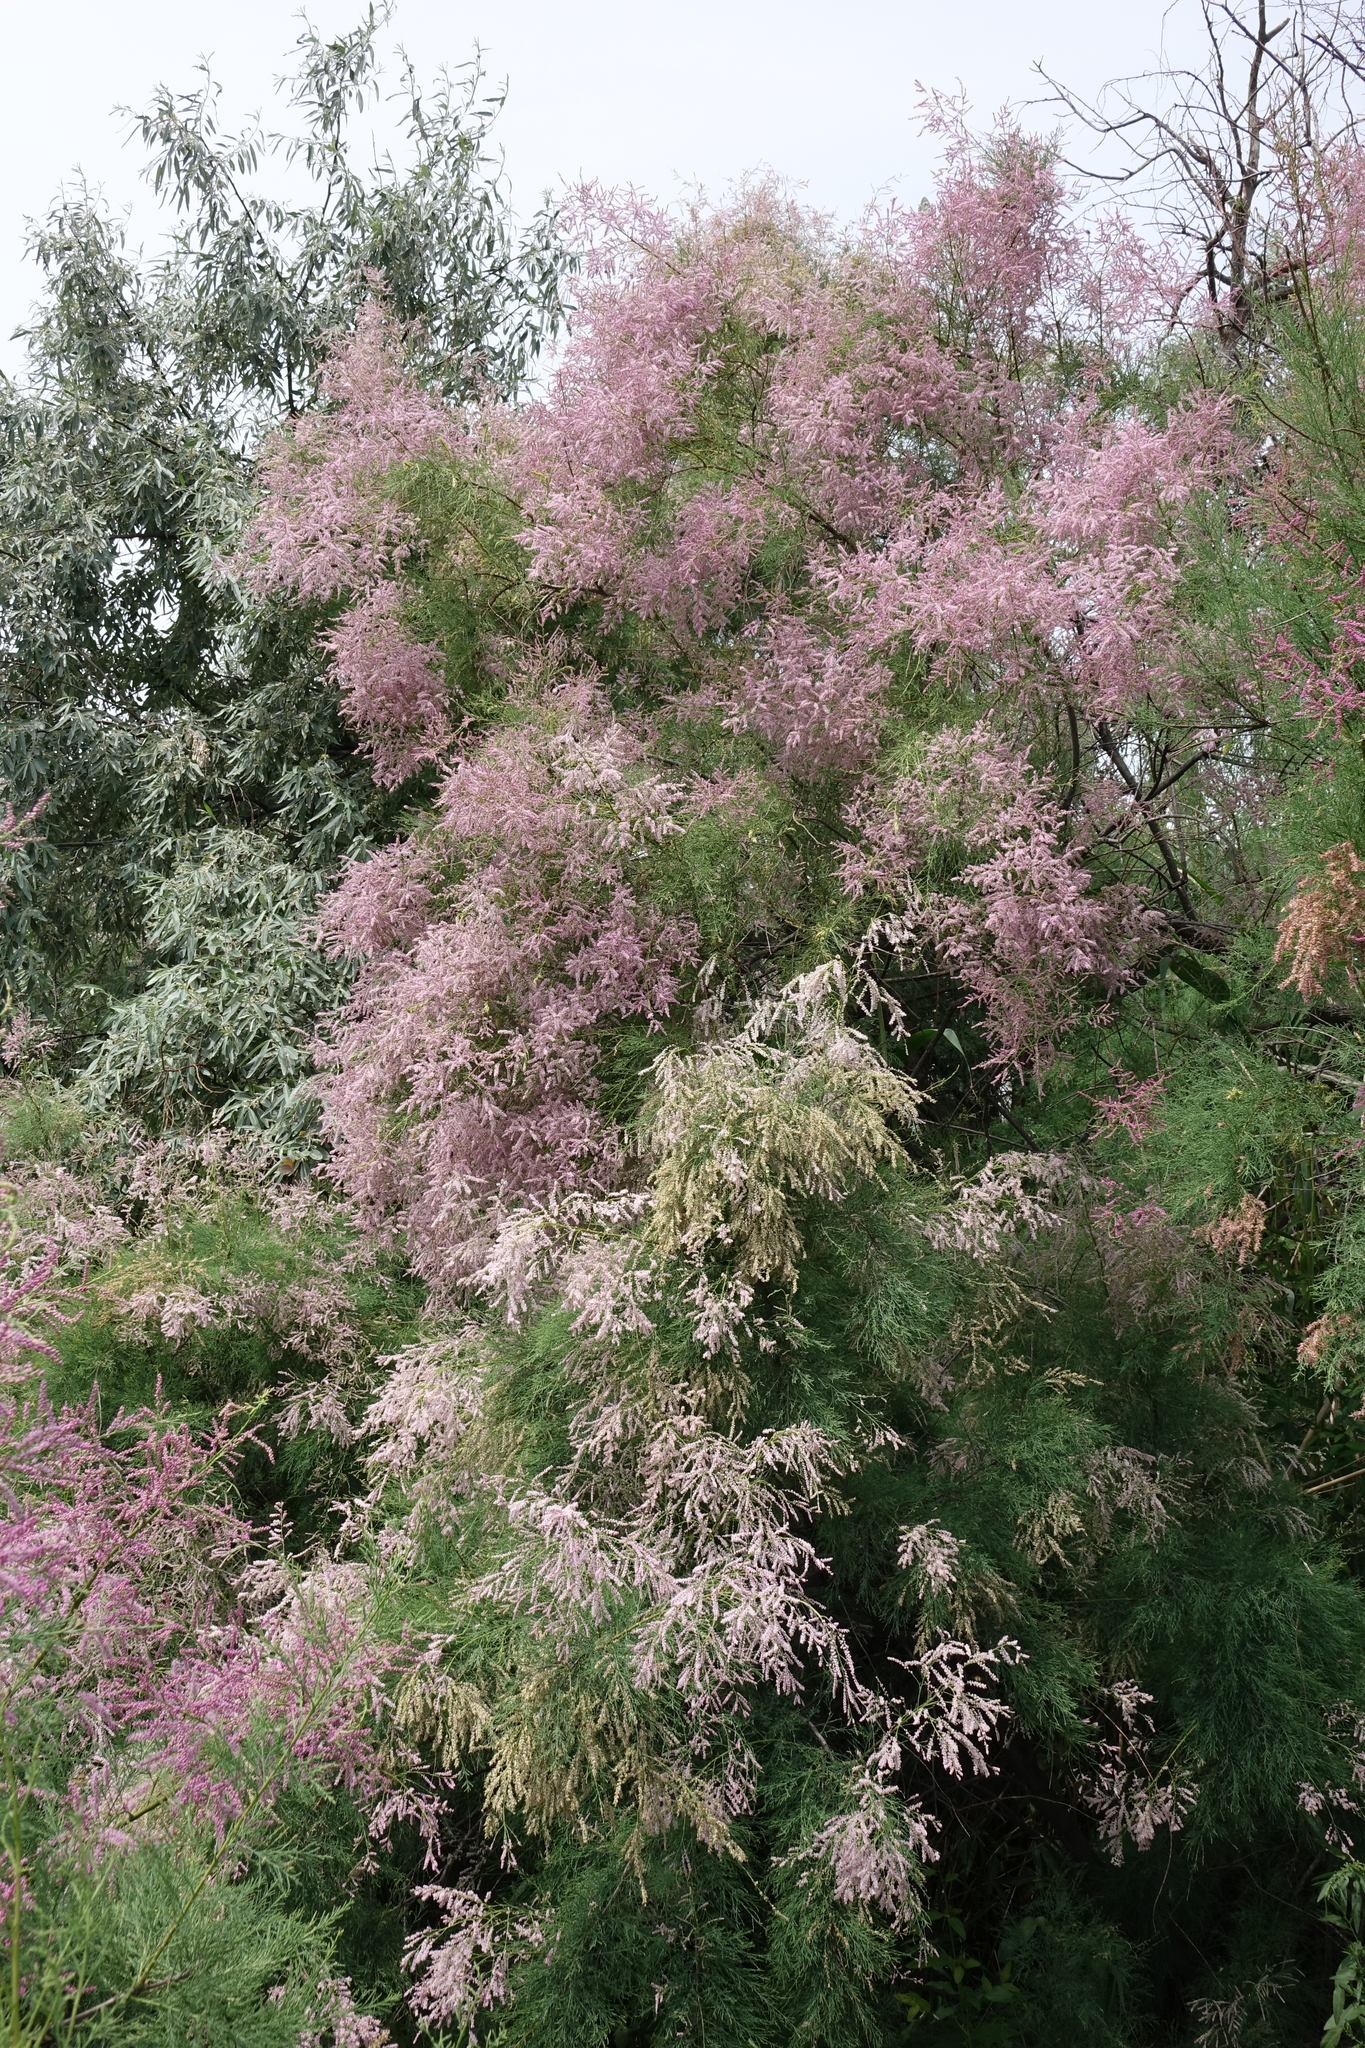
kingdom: Plantae
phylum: Tracheophyta
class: Magnoliopsida
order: Caryophyllales
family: Tamaricaceae
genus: Tamarix
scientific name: Tamarix ramosissima
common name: Pink tamarisk
